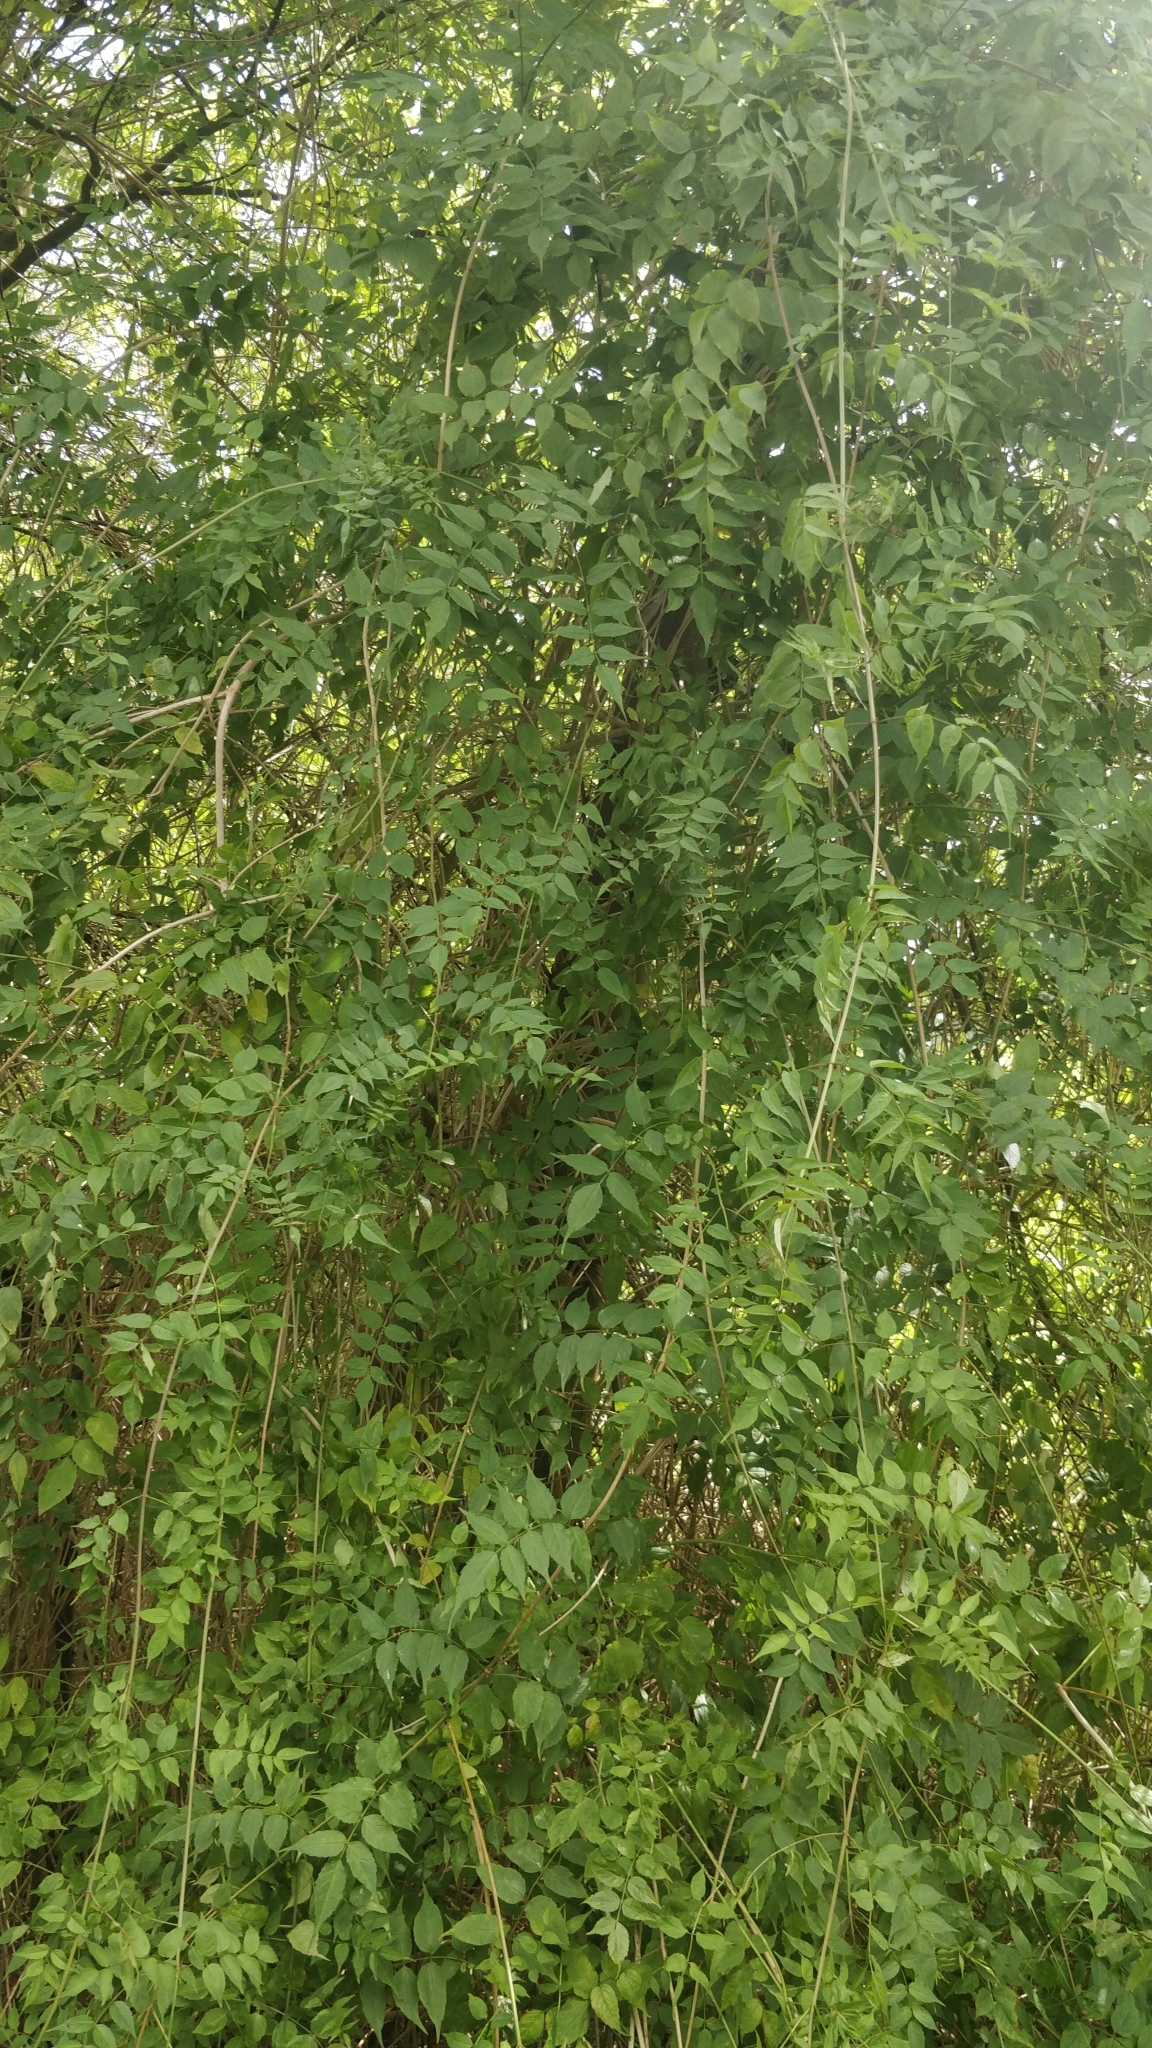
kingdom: Plantae
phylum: Tracheophyta
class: Magnoliopsida
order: Lamiales
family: Bignoniaceae
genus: Podranea
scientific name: Podranea ricasoliana
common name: Zimbabwe creeper
